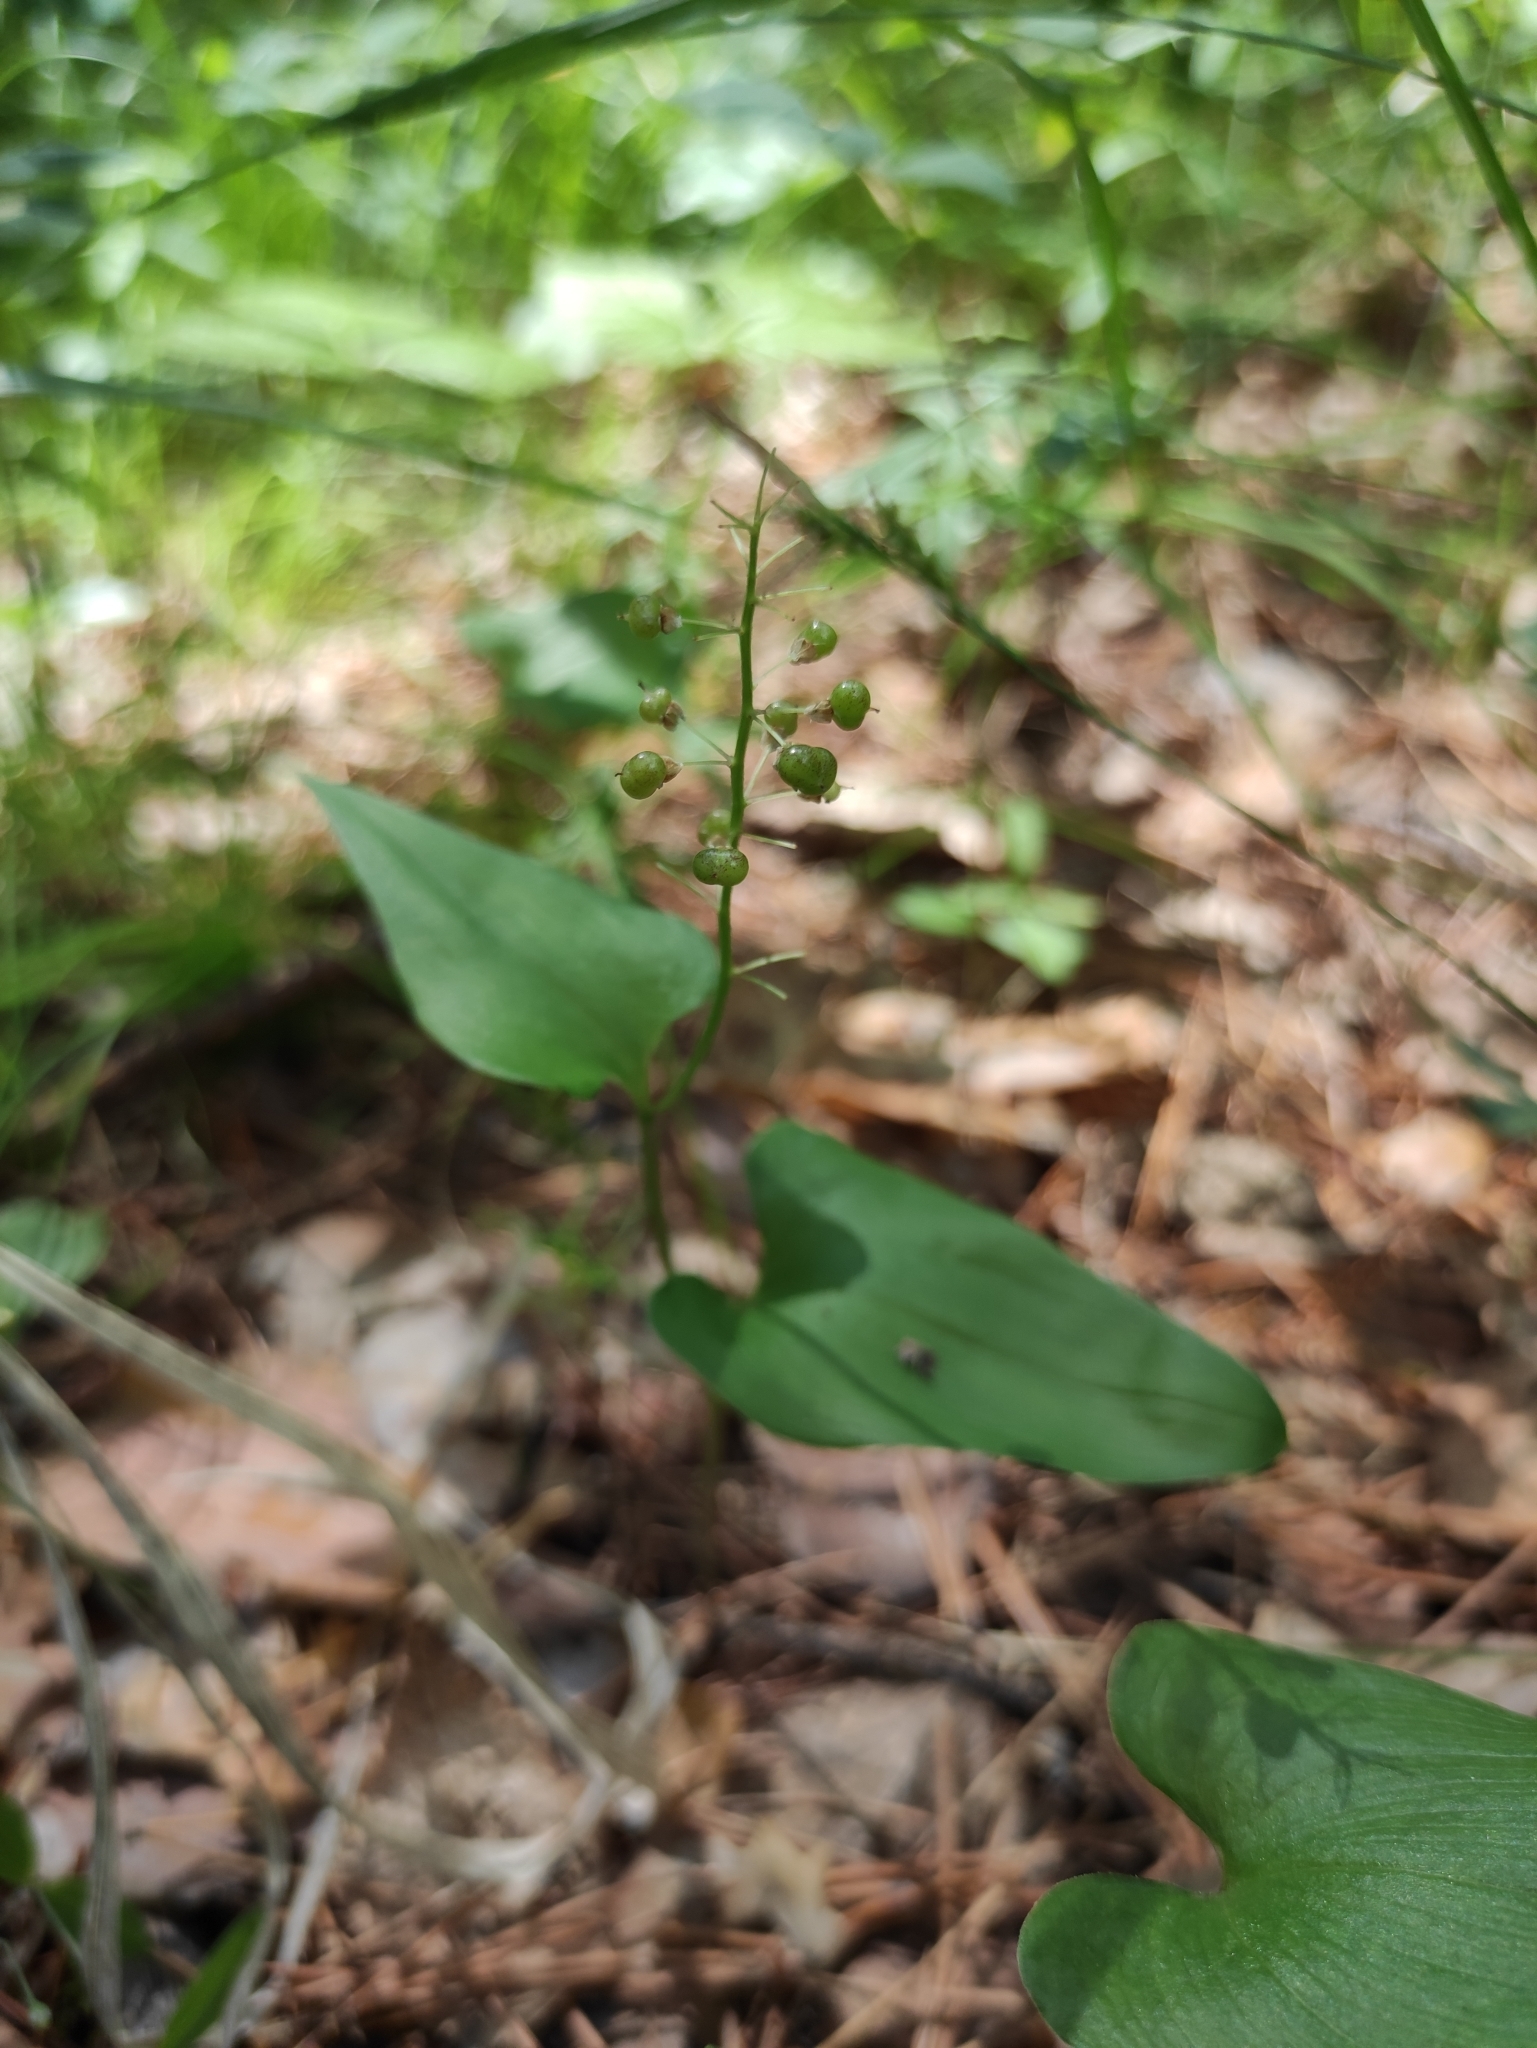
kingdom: Plantae
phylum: Tracheophyta
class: Liliopsida
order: Asparagales
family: Asparagaceae
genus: Maianthemum
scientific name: Maianthemum bifolium
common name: May lily
